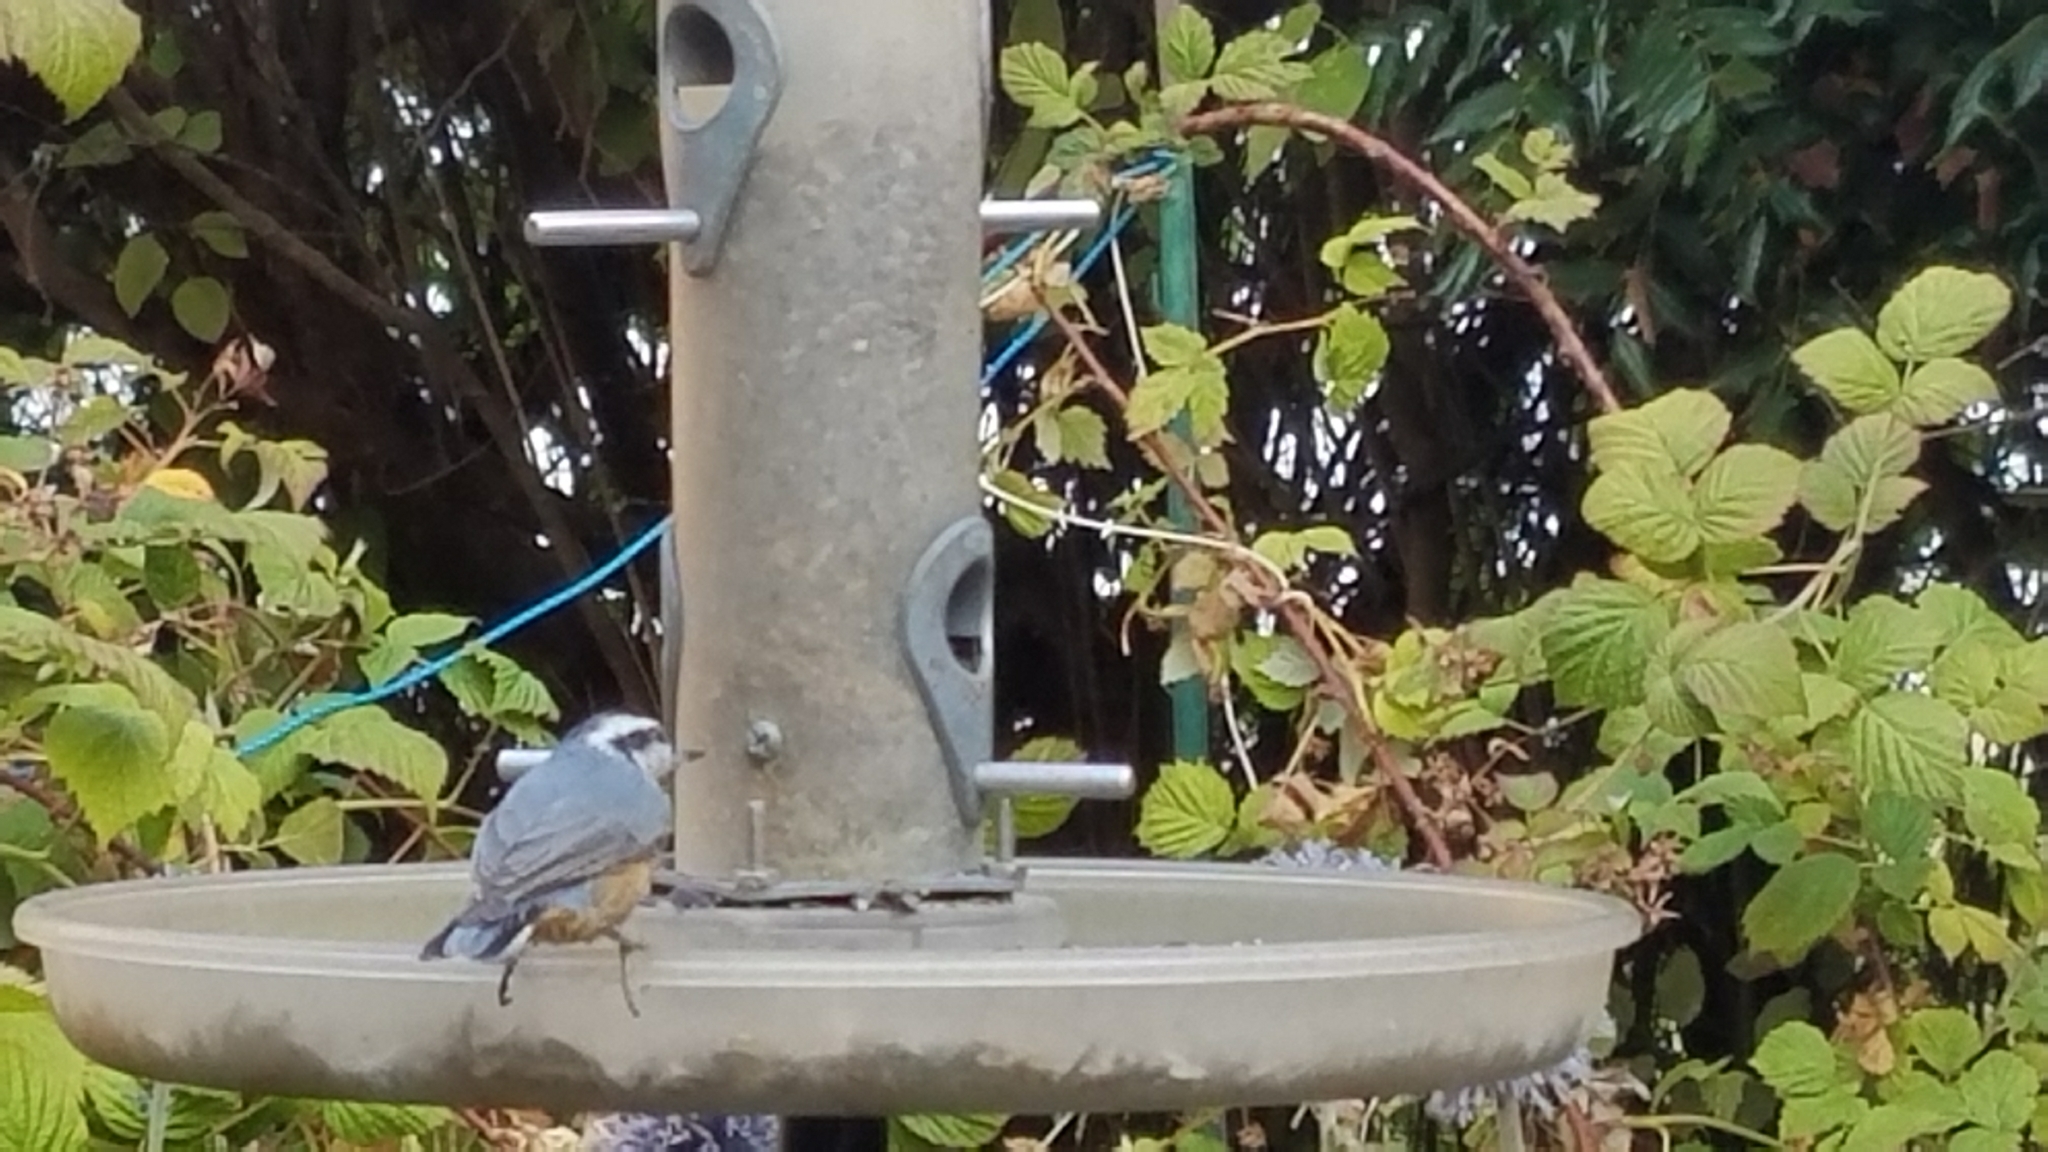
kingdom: Animalia
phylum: Chordata
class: Aves
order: Passeriformes
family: Sittidae
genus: Sitta
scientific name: Sitta canadensis
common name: Red-breasted nuthatch
